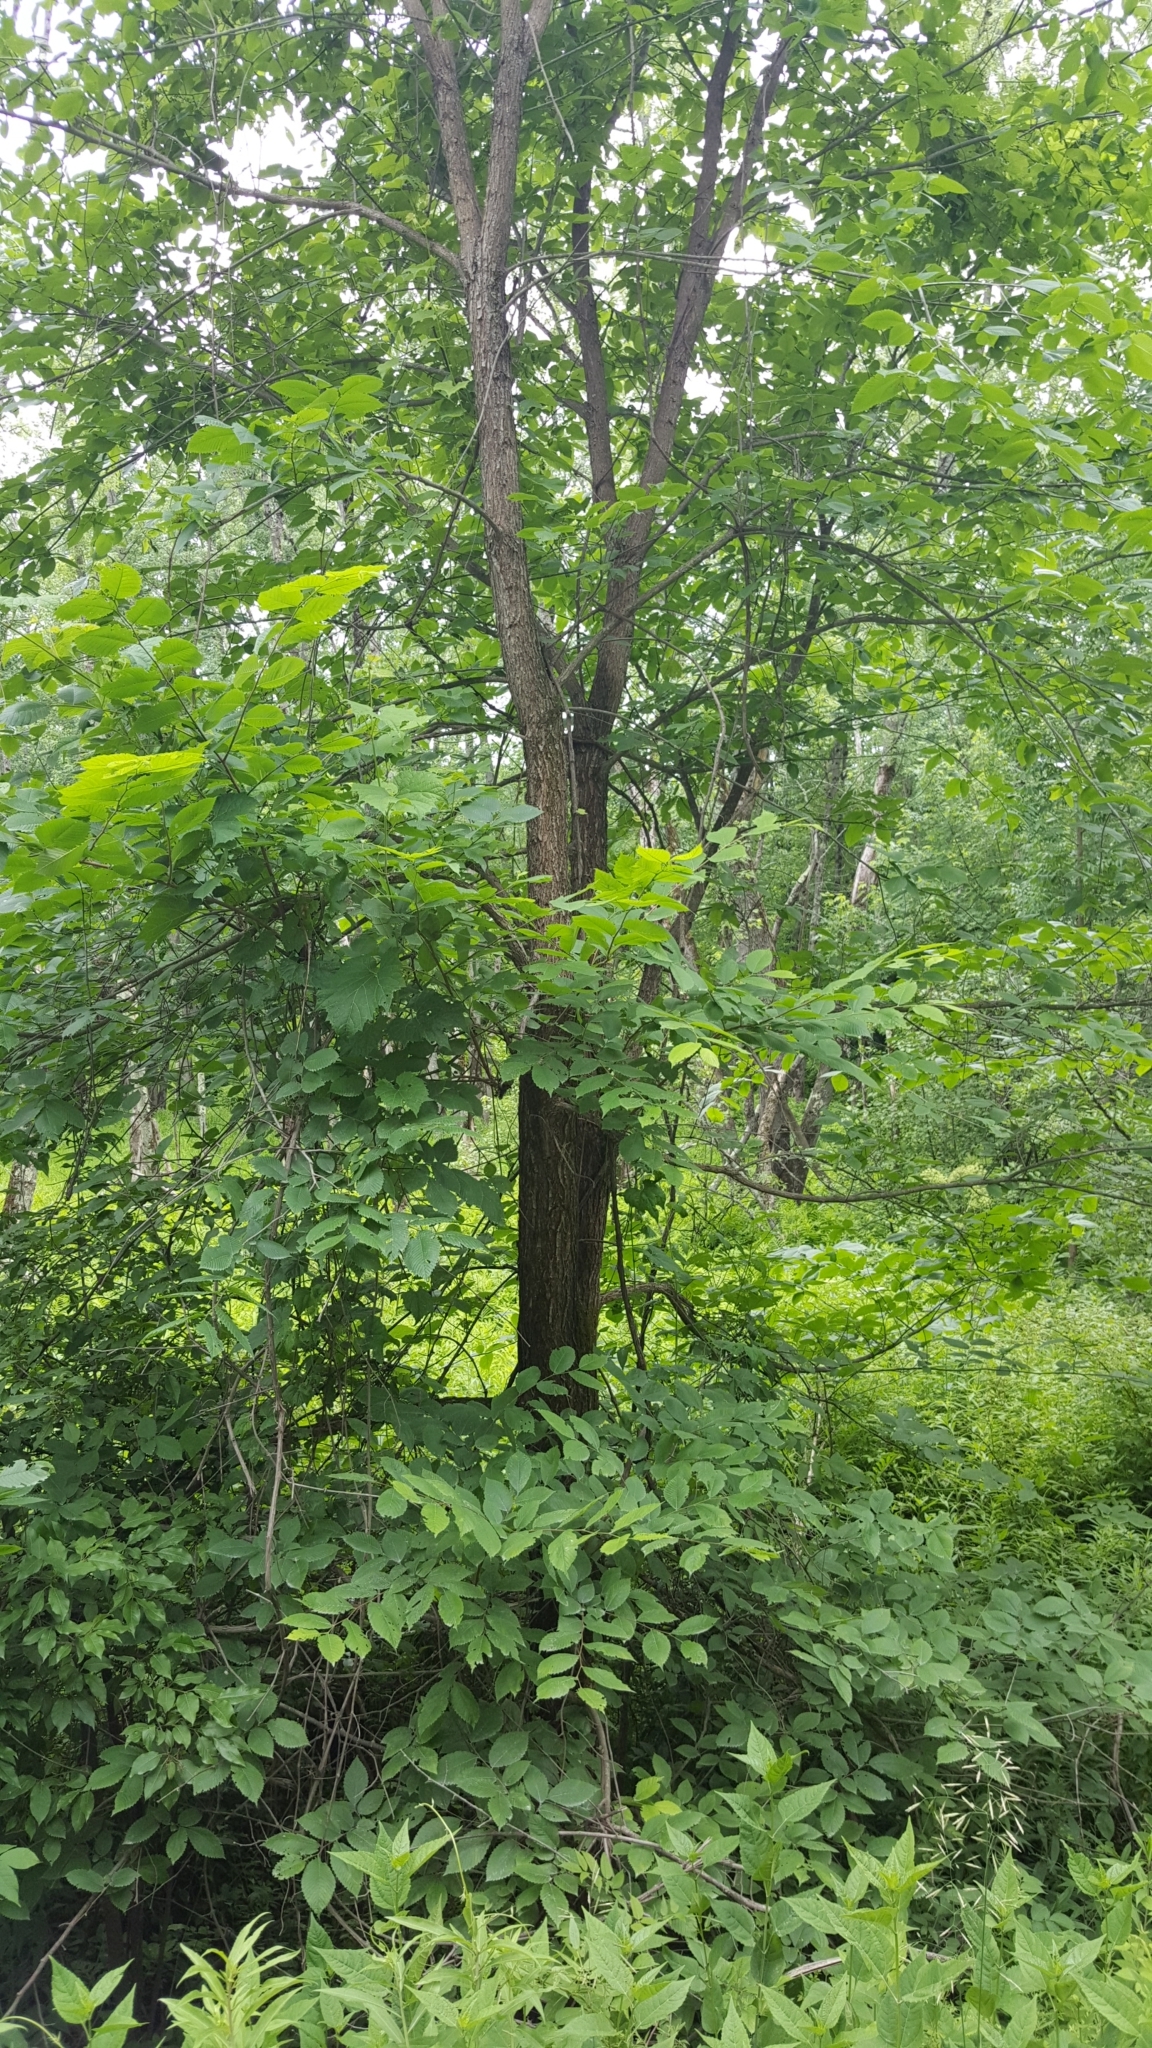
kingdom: Plantae
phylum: Tracheophyta
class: Magnoliopsida
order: Rosales
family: Ulmaceae
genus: Ulmus
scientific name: Ulmus americana
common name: American elm
